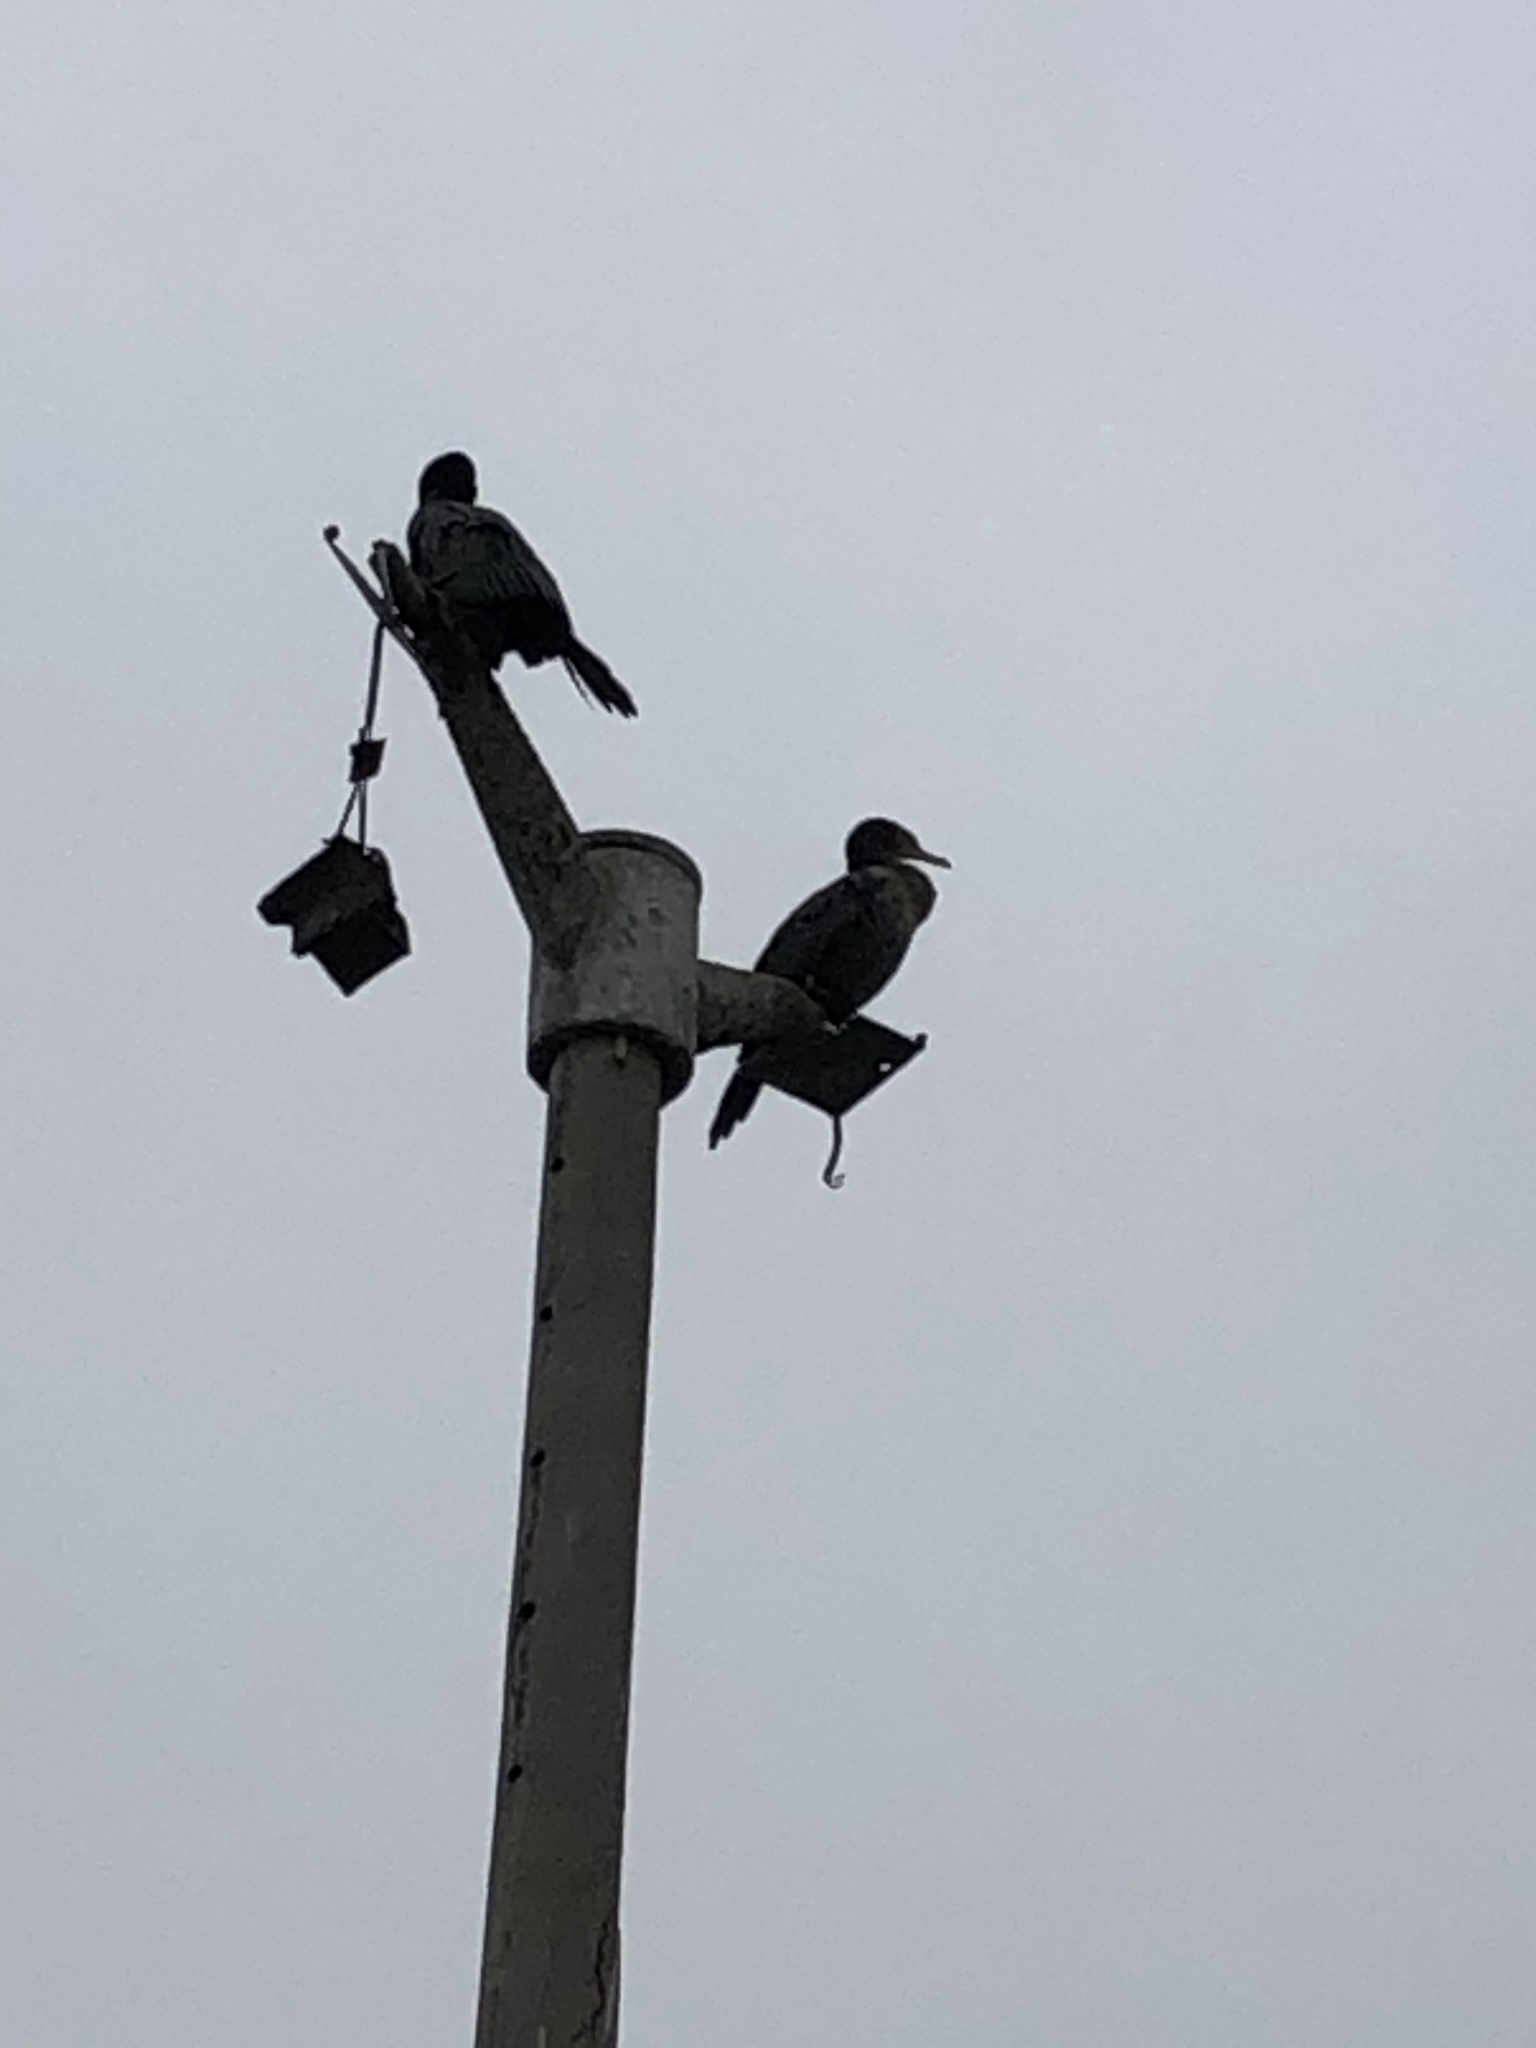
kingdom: Animalia
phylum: Chordata
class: Aves
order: Suliformes
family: Phalacrocoracidae
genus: Phalacrocorax
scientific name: Phalacrocorax brasilianus
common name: Neotropic cormorant
